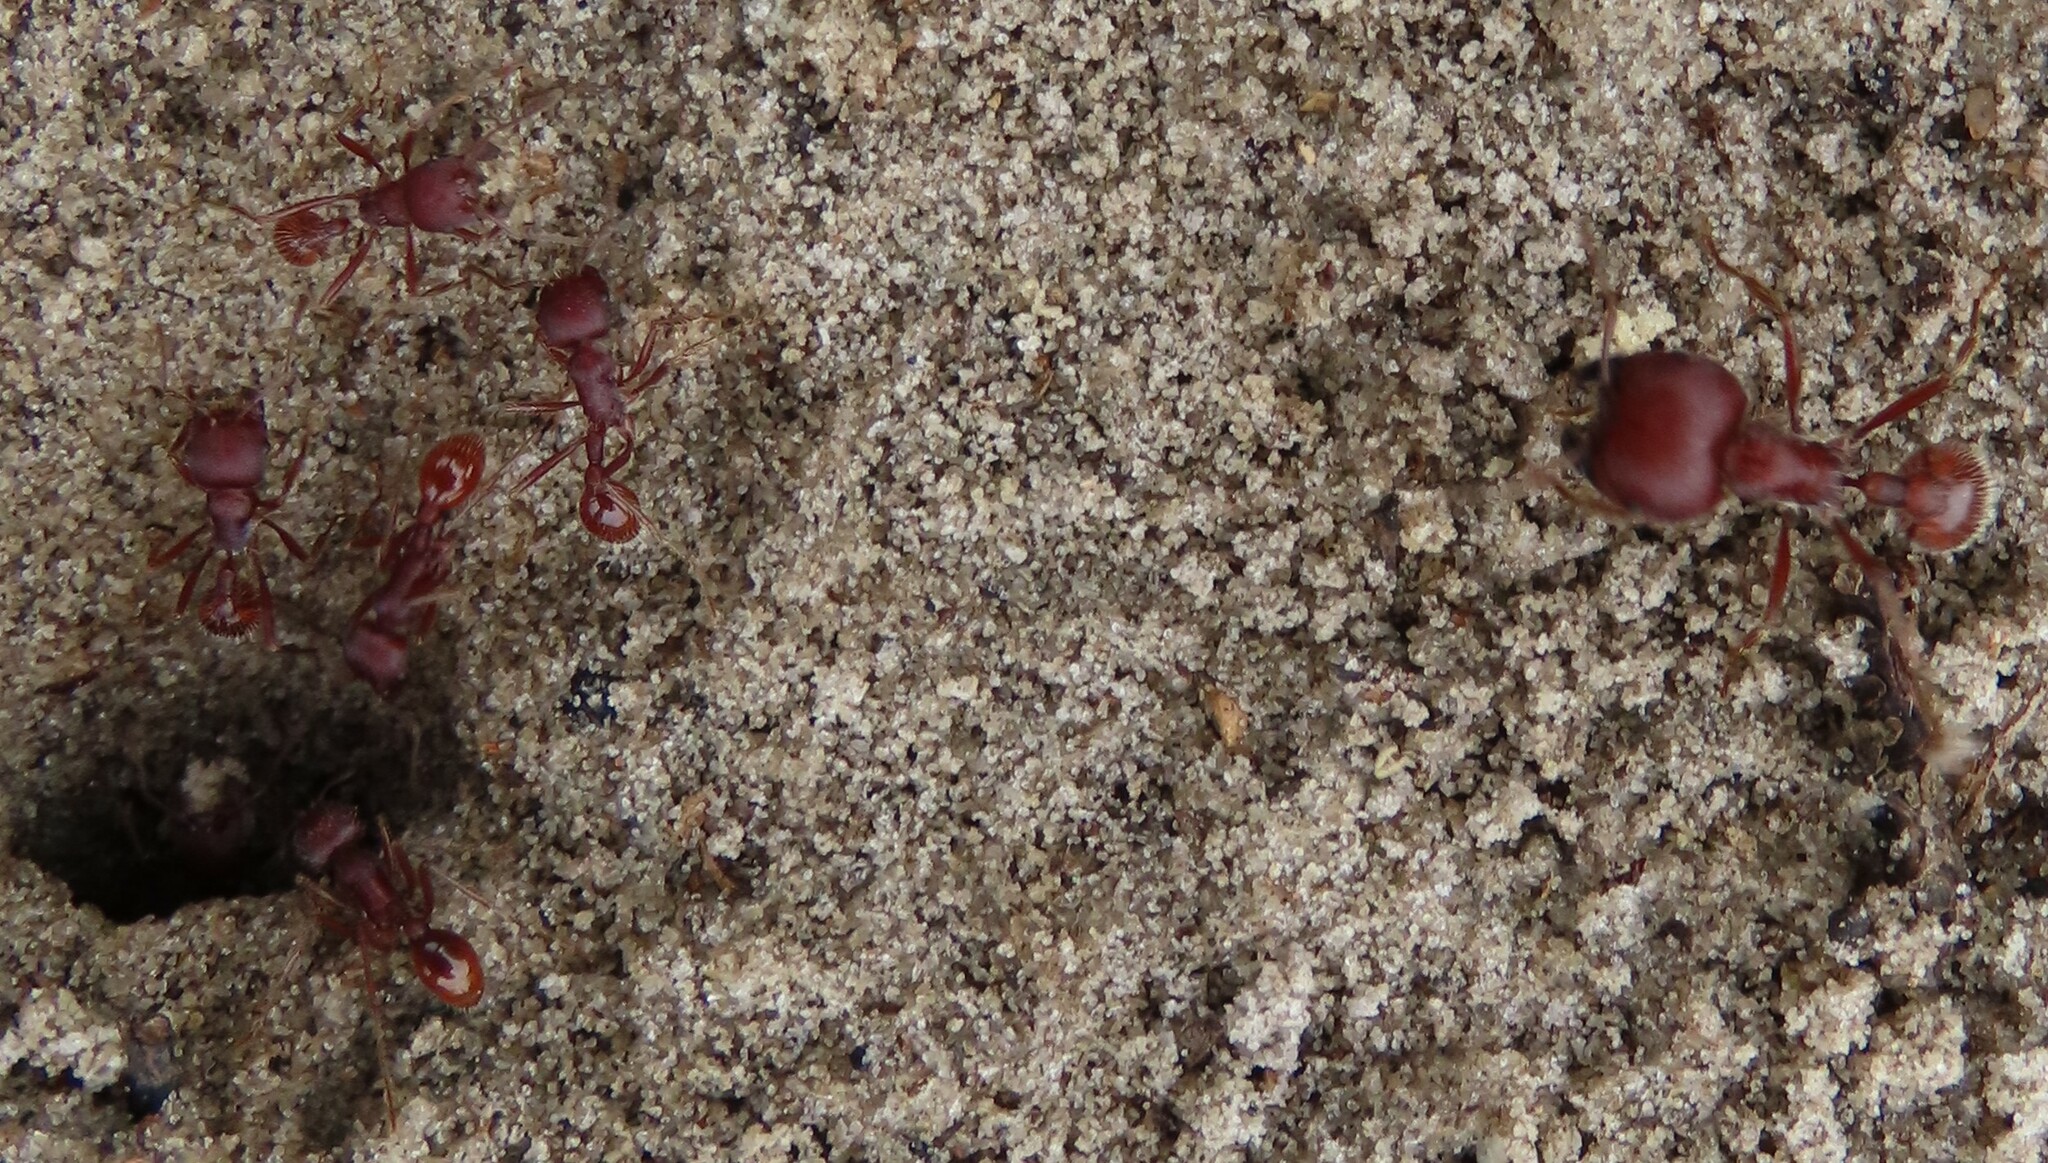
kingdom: Animalia
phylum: Arthropoda
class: Insecta
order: Hymenoptera
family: Formicidae
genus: Pogonomyrmex
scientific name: Pogonomyrmex badius
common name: Florida harvester ant
